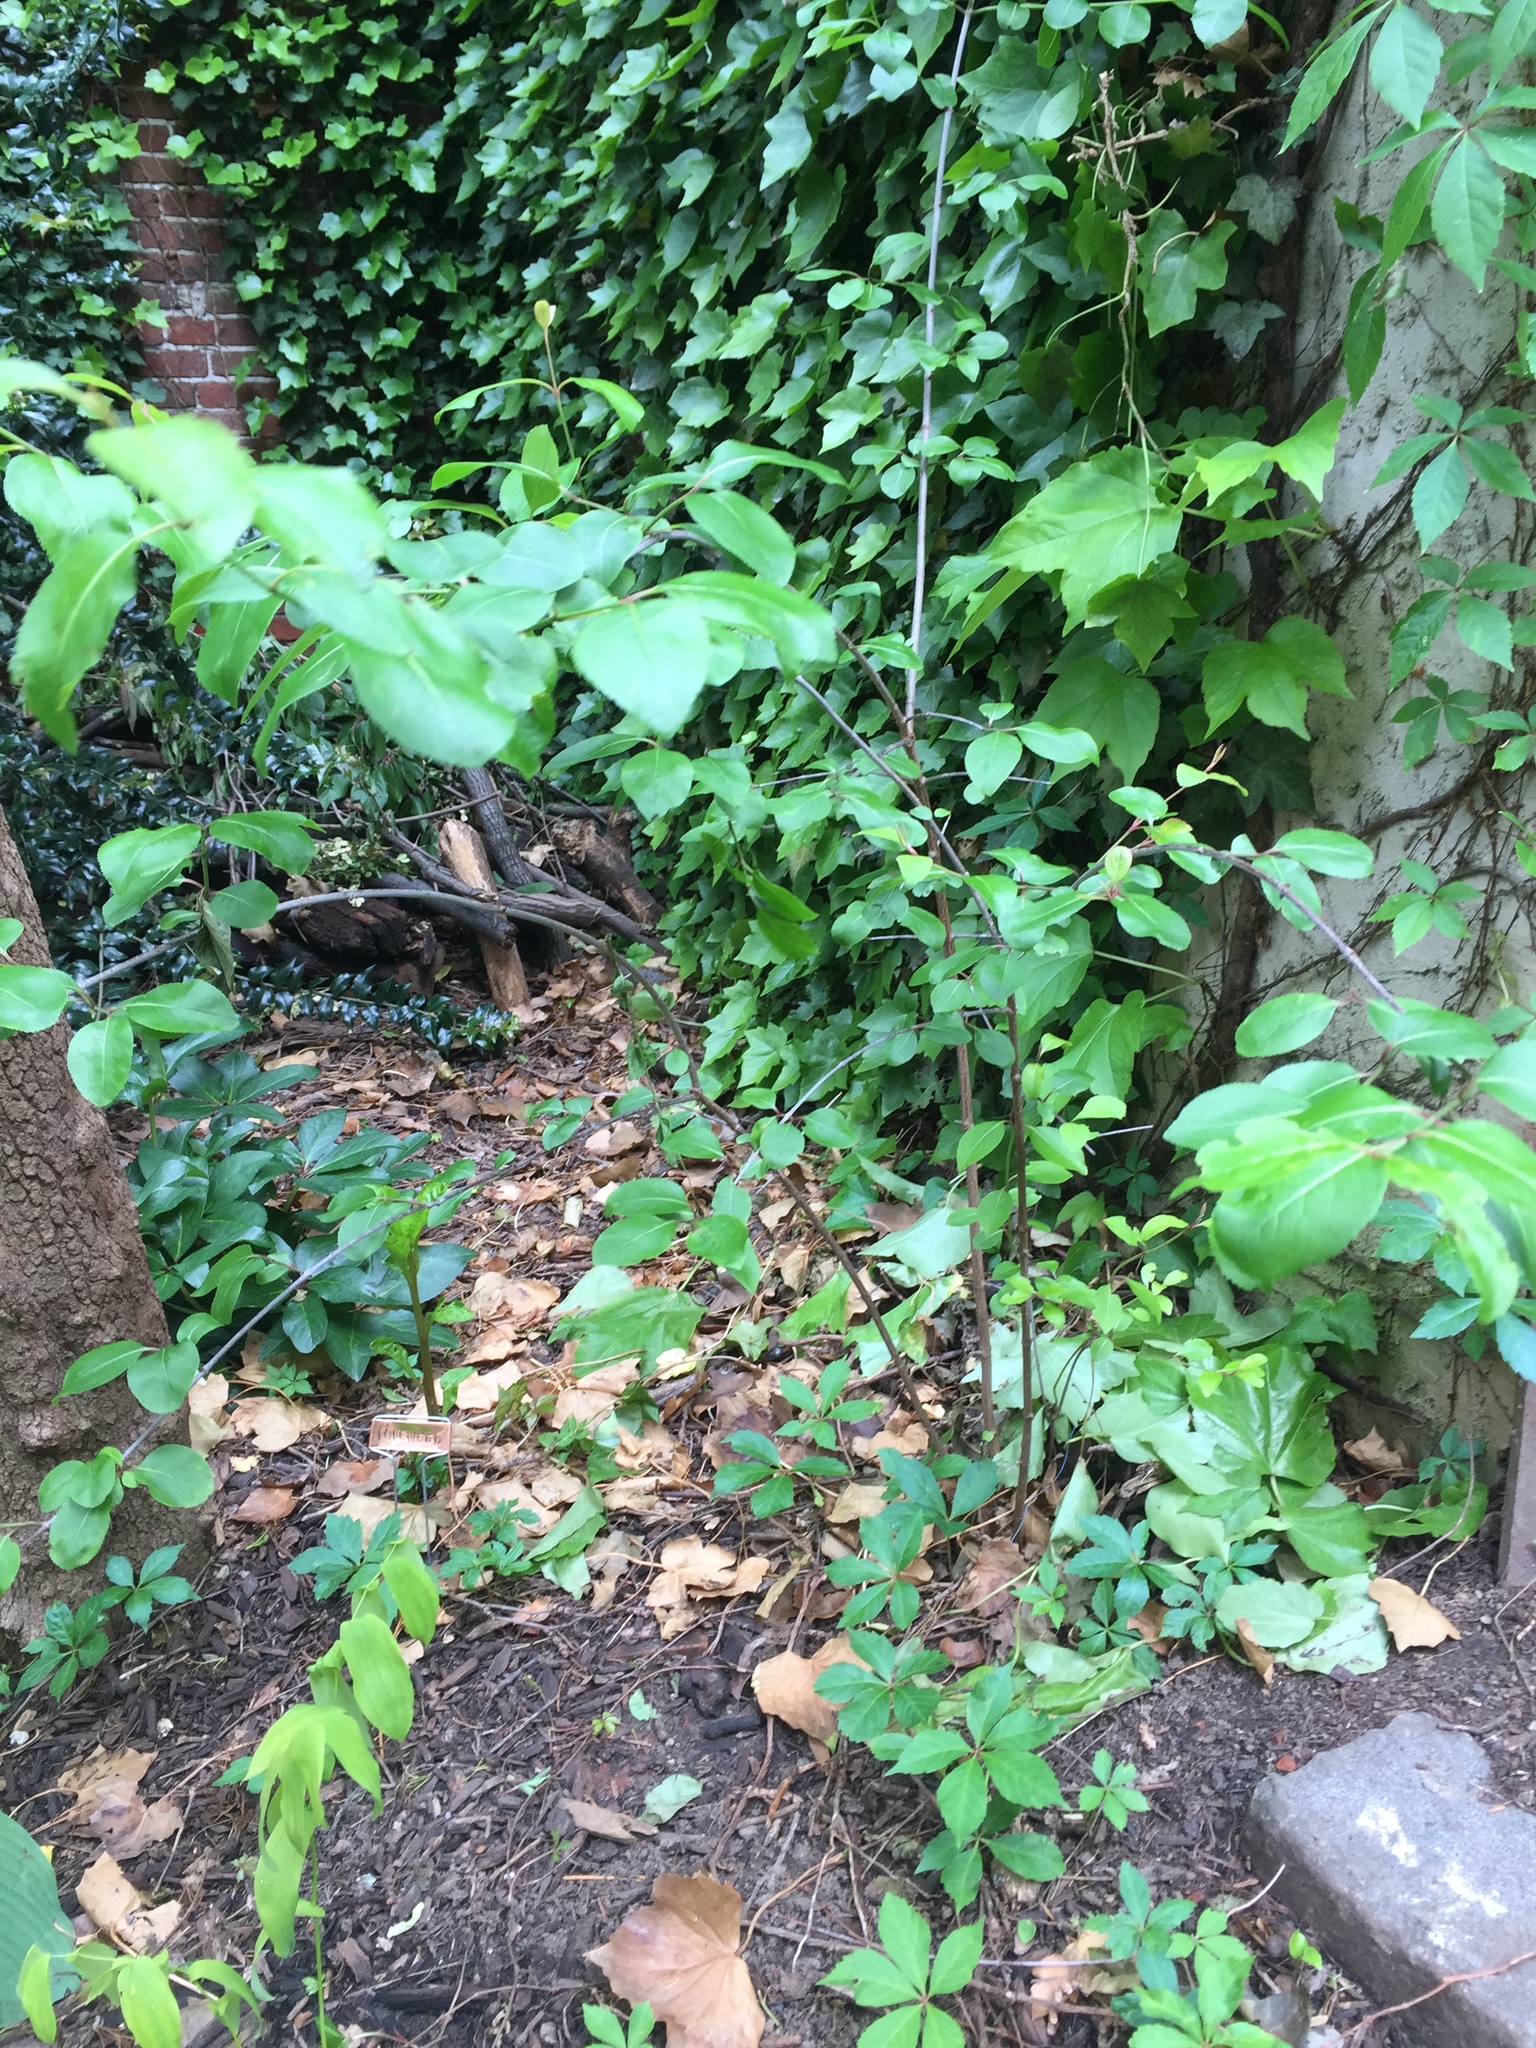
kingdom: Plantae
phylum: Tracheophyta
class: Magnoliopsida
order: Dipsacales
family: Viburnaceae
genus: Viburnum
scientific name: Viburnum prunifolium
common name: Black haw
